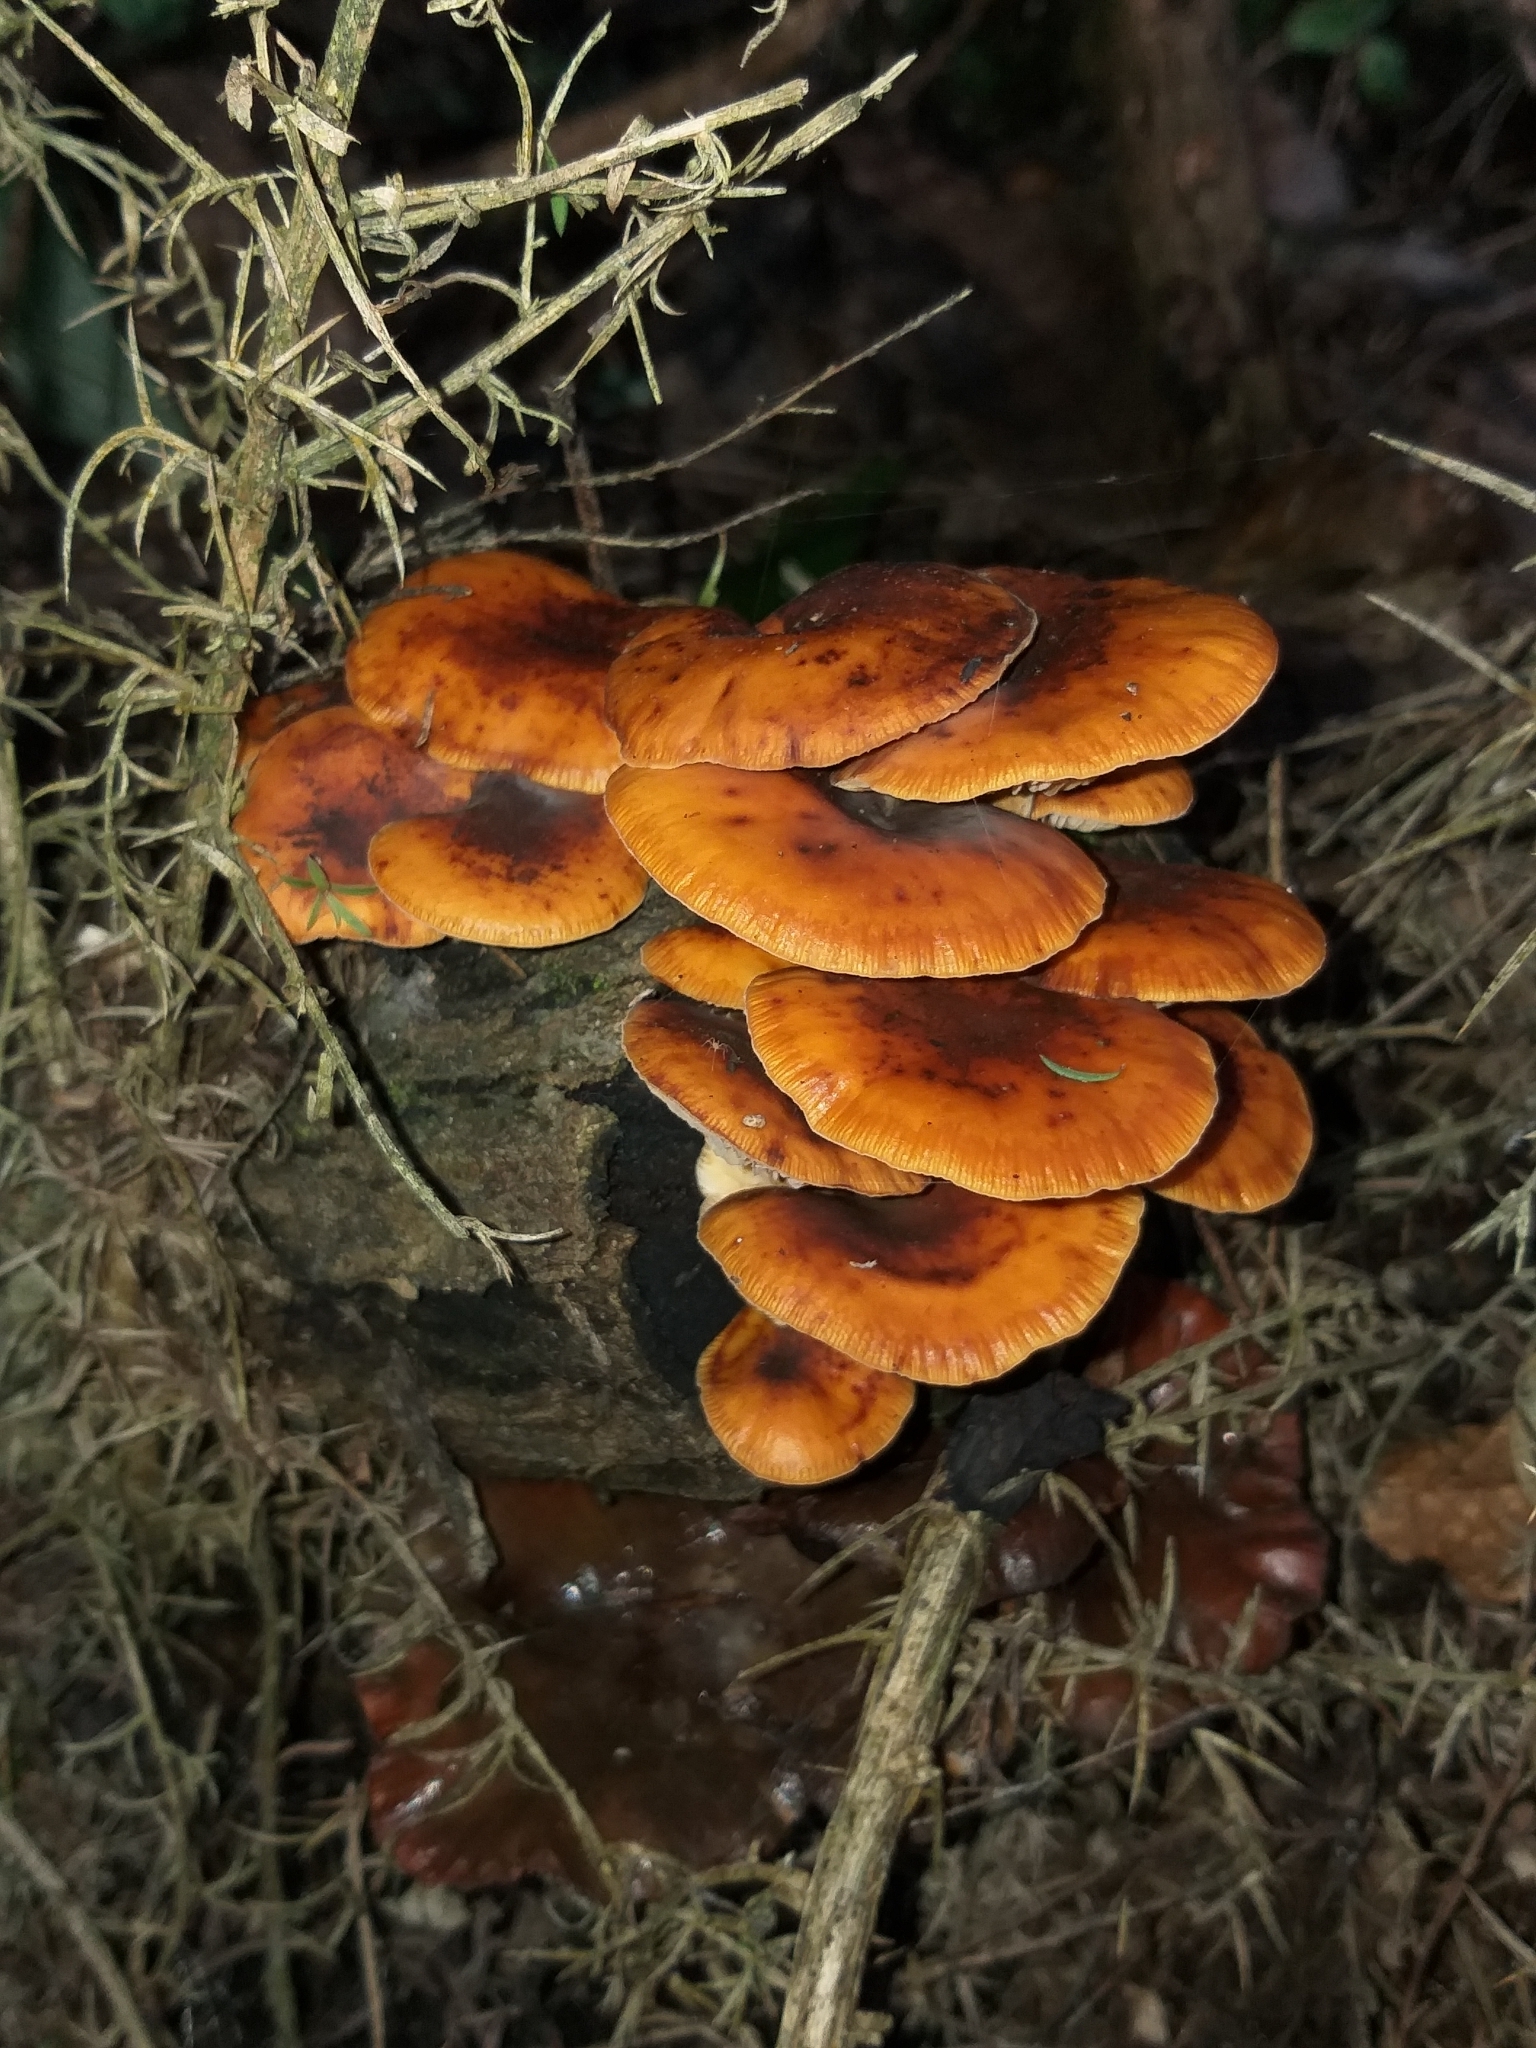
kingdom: Fungi
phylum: Basidiomycota
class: Agaricomycetes
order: Agaricales
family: Physalacriaceae
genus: Flammulina
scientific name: Flammulina velutipes
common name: Velvet shank
